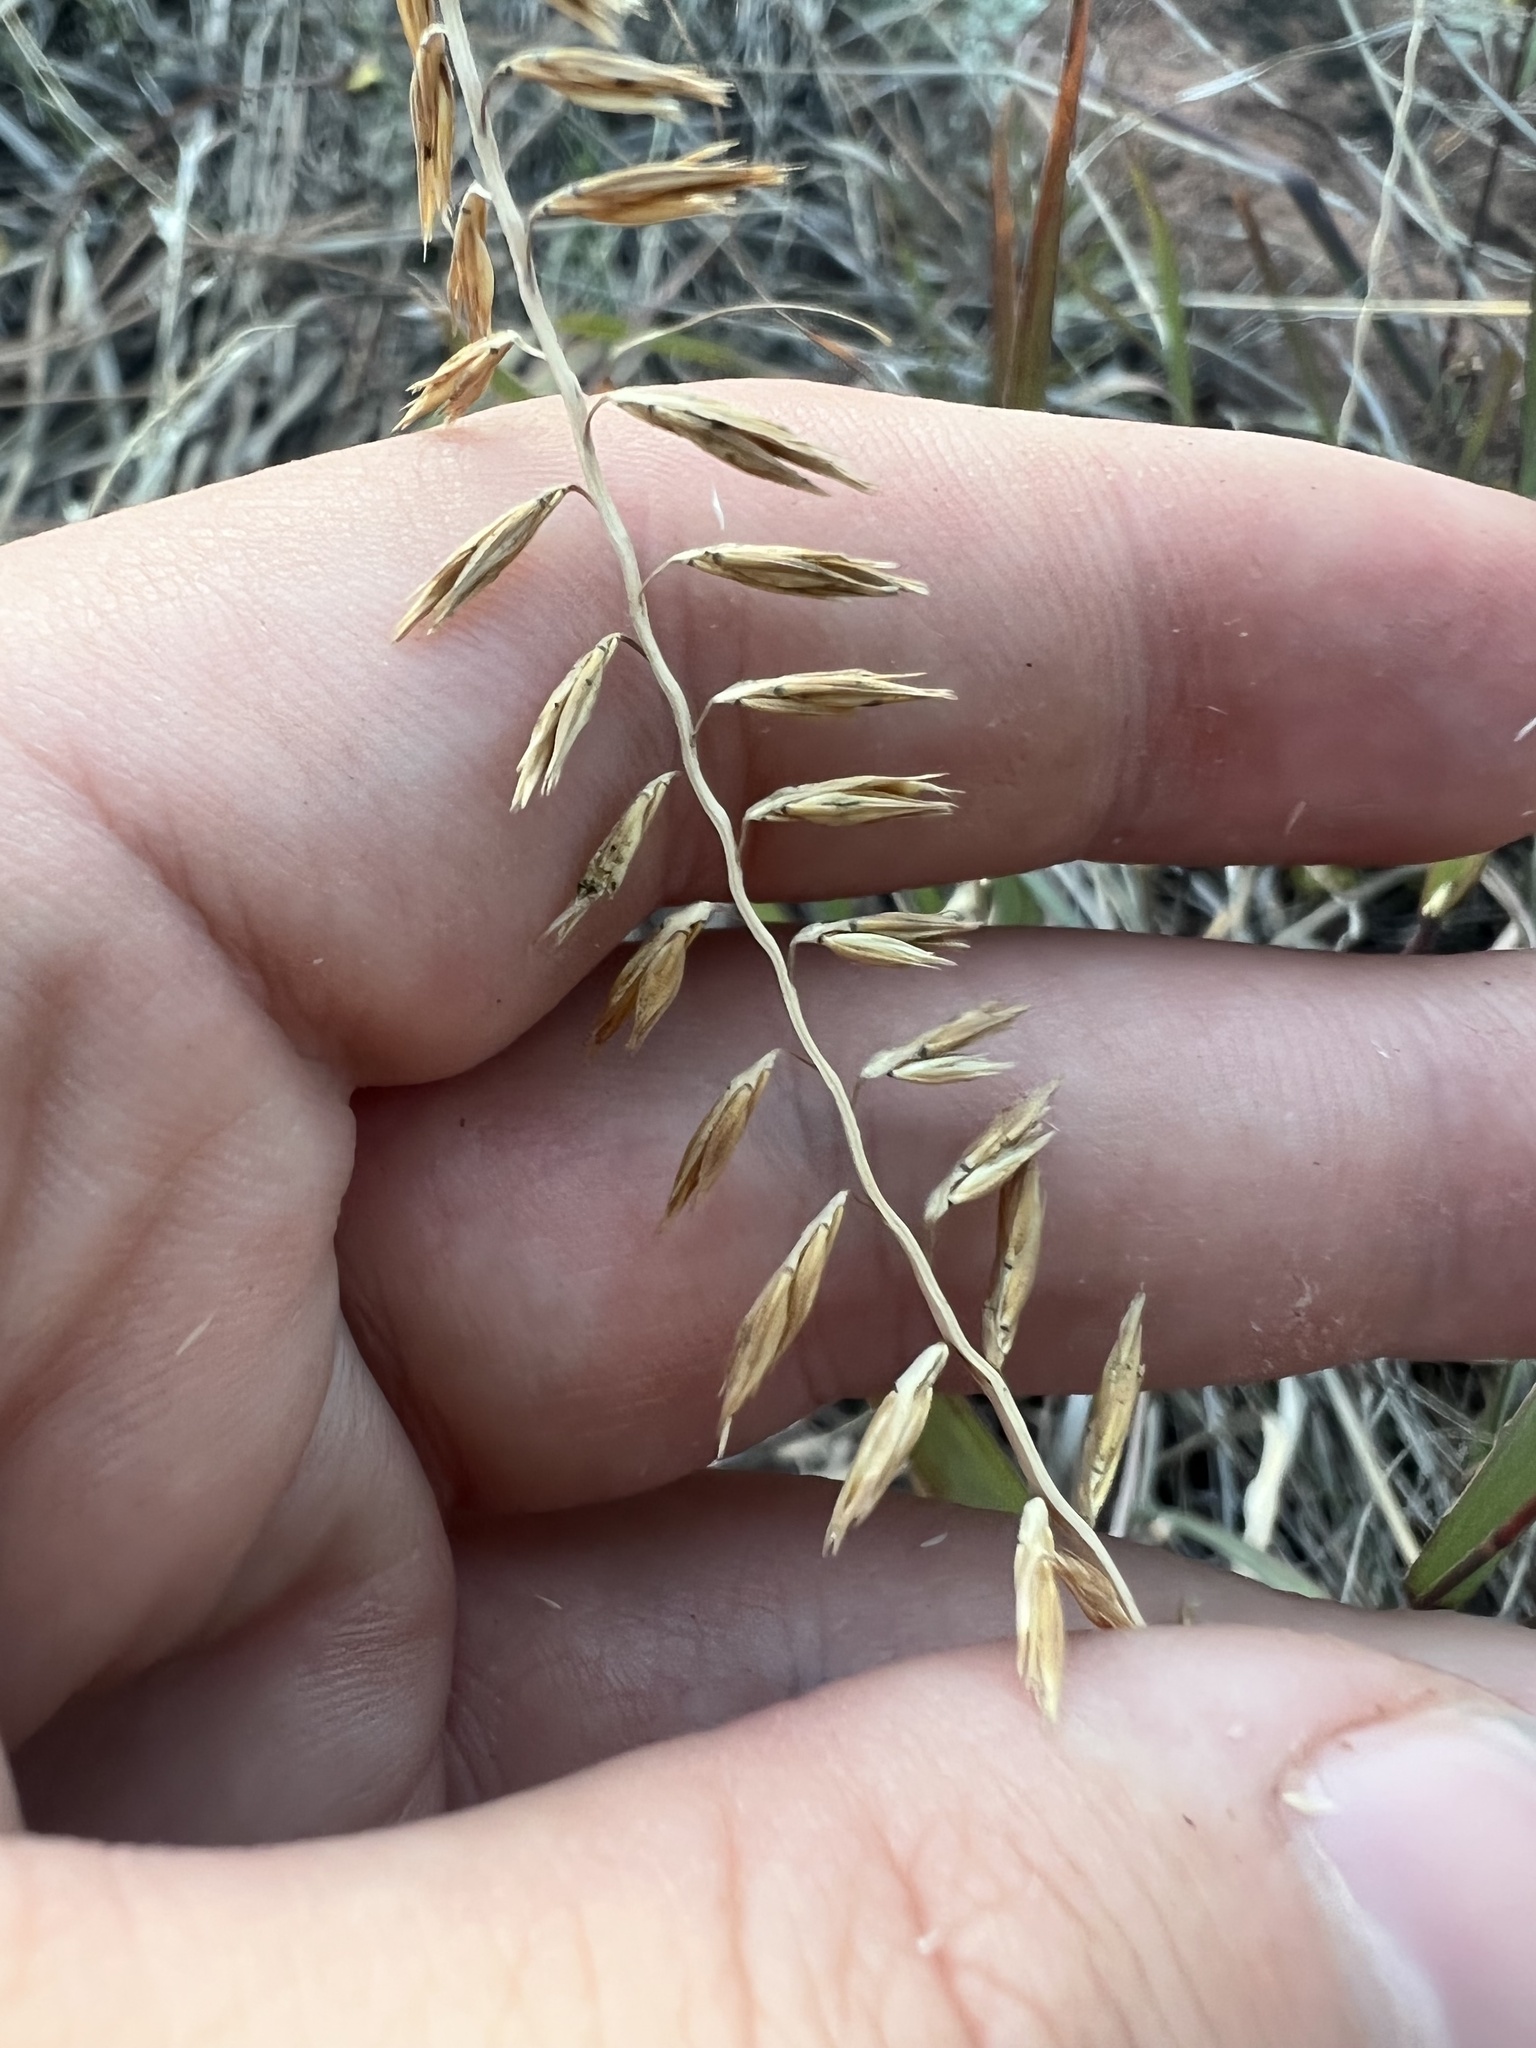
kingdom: Plantae
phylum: Tracheophyta
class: Liliopsida
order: Poales
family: Poaceae
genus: Bouteloua
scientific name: Bouteloua curtipendula
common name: Side-oats grama
